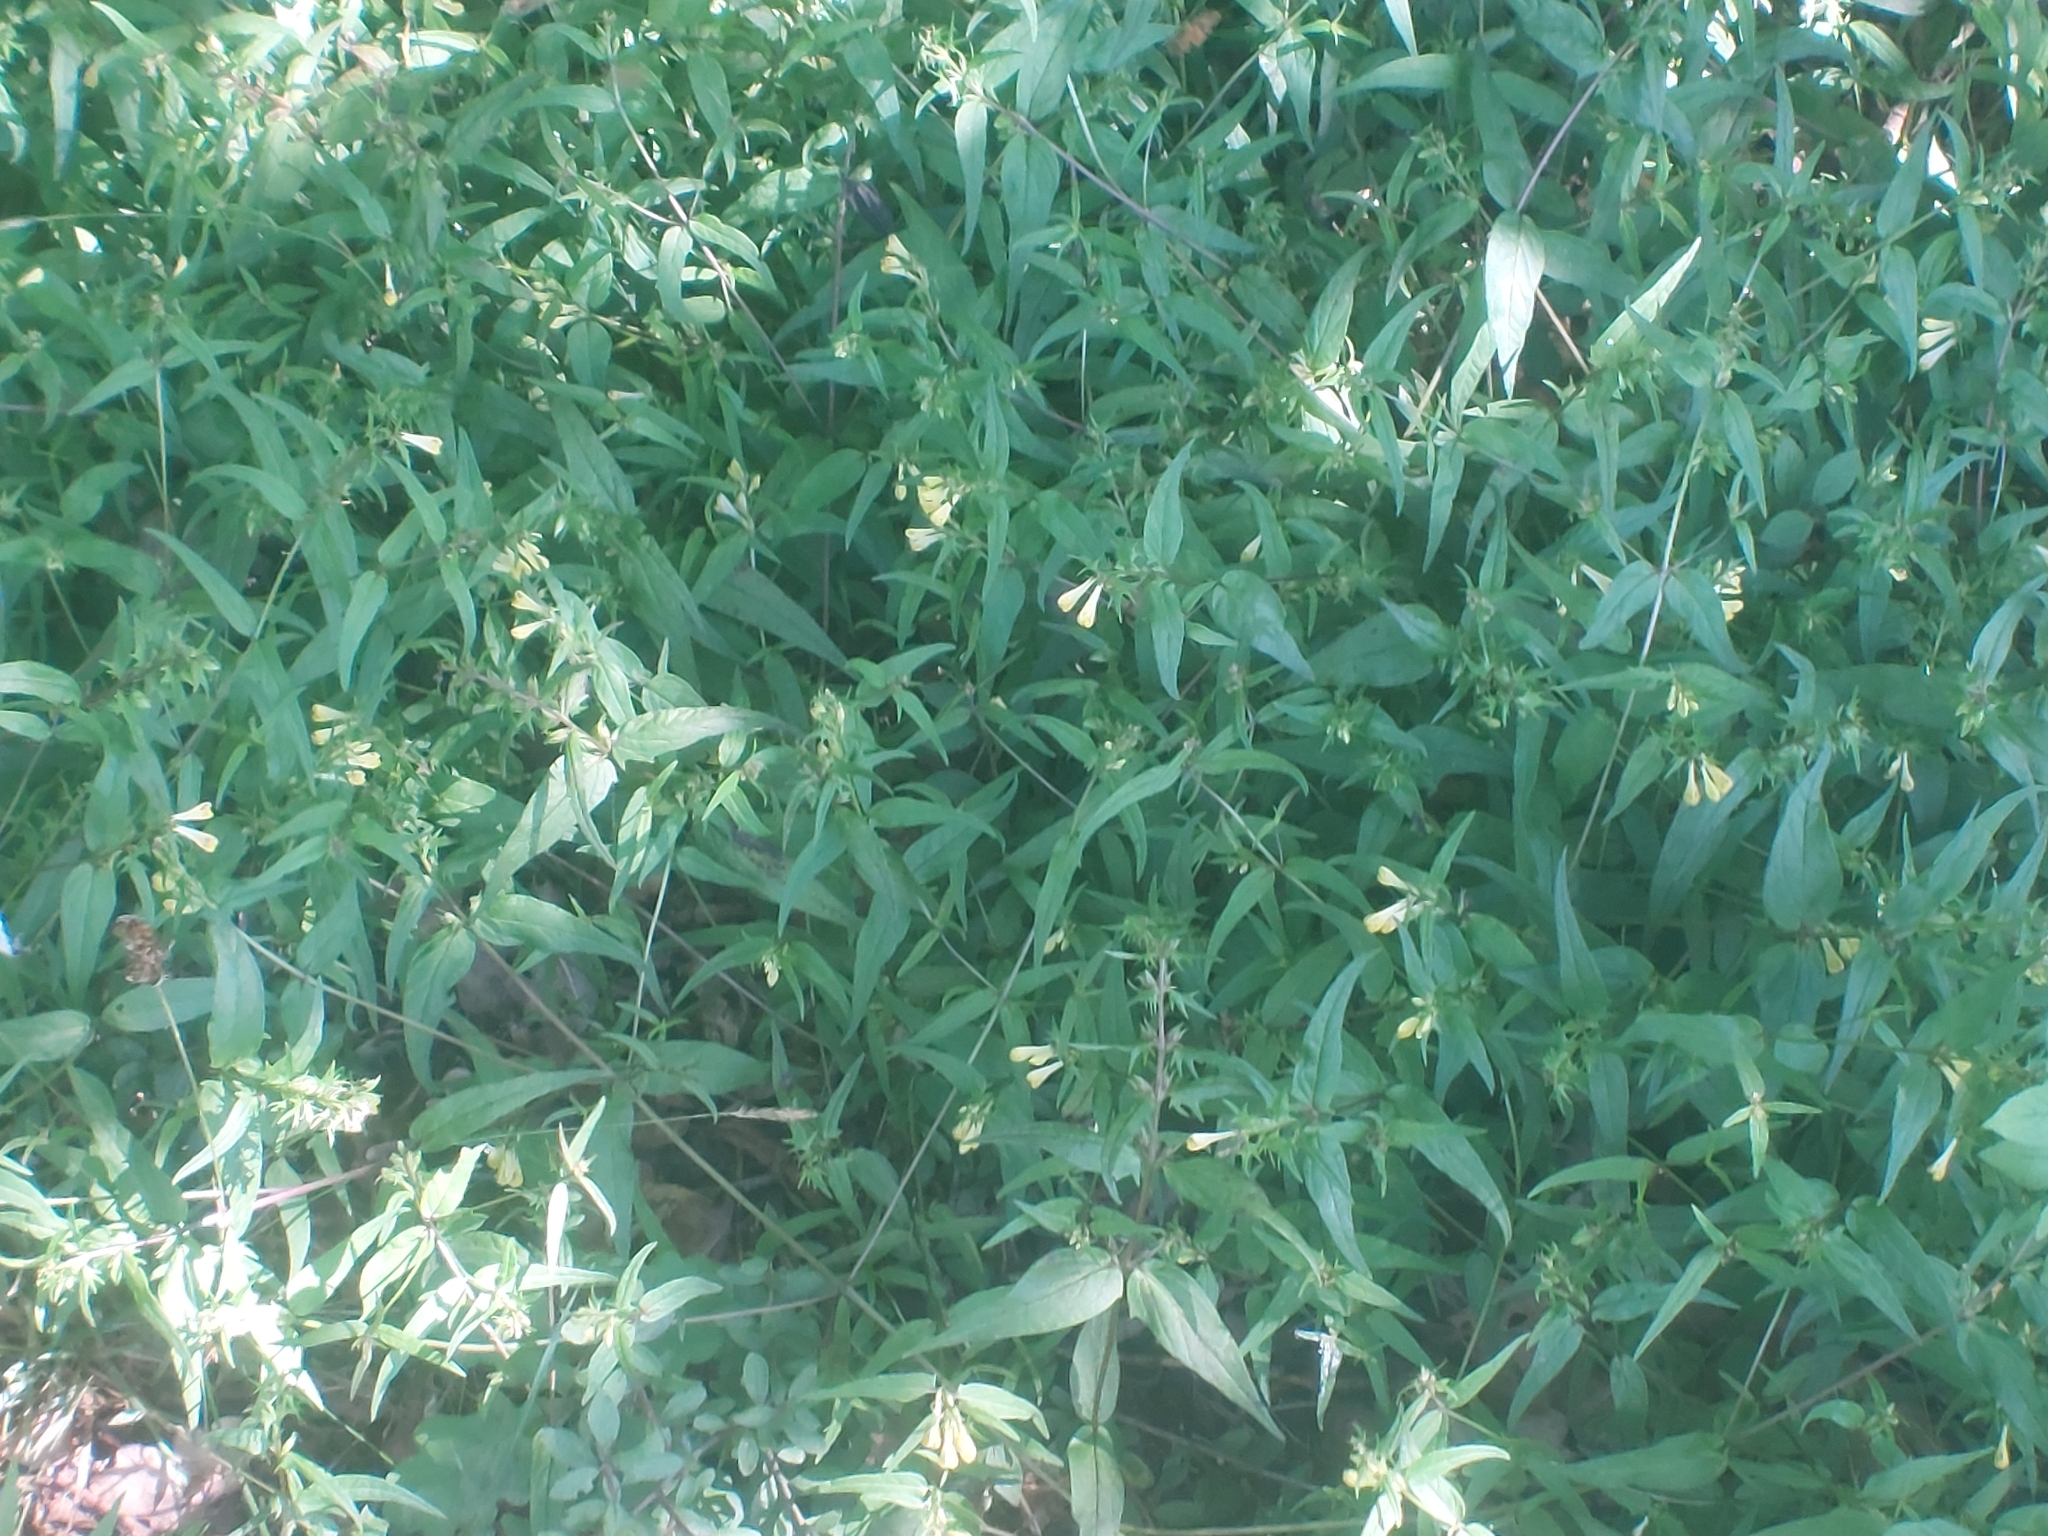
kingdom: Plantae
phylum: Tracheophyta
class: Magnoliopsida
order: Lamiales
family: Orobanchaceae
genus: Melampyrum
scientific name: Melampyrum pratense
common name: Common cow-wheat
